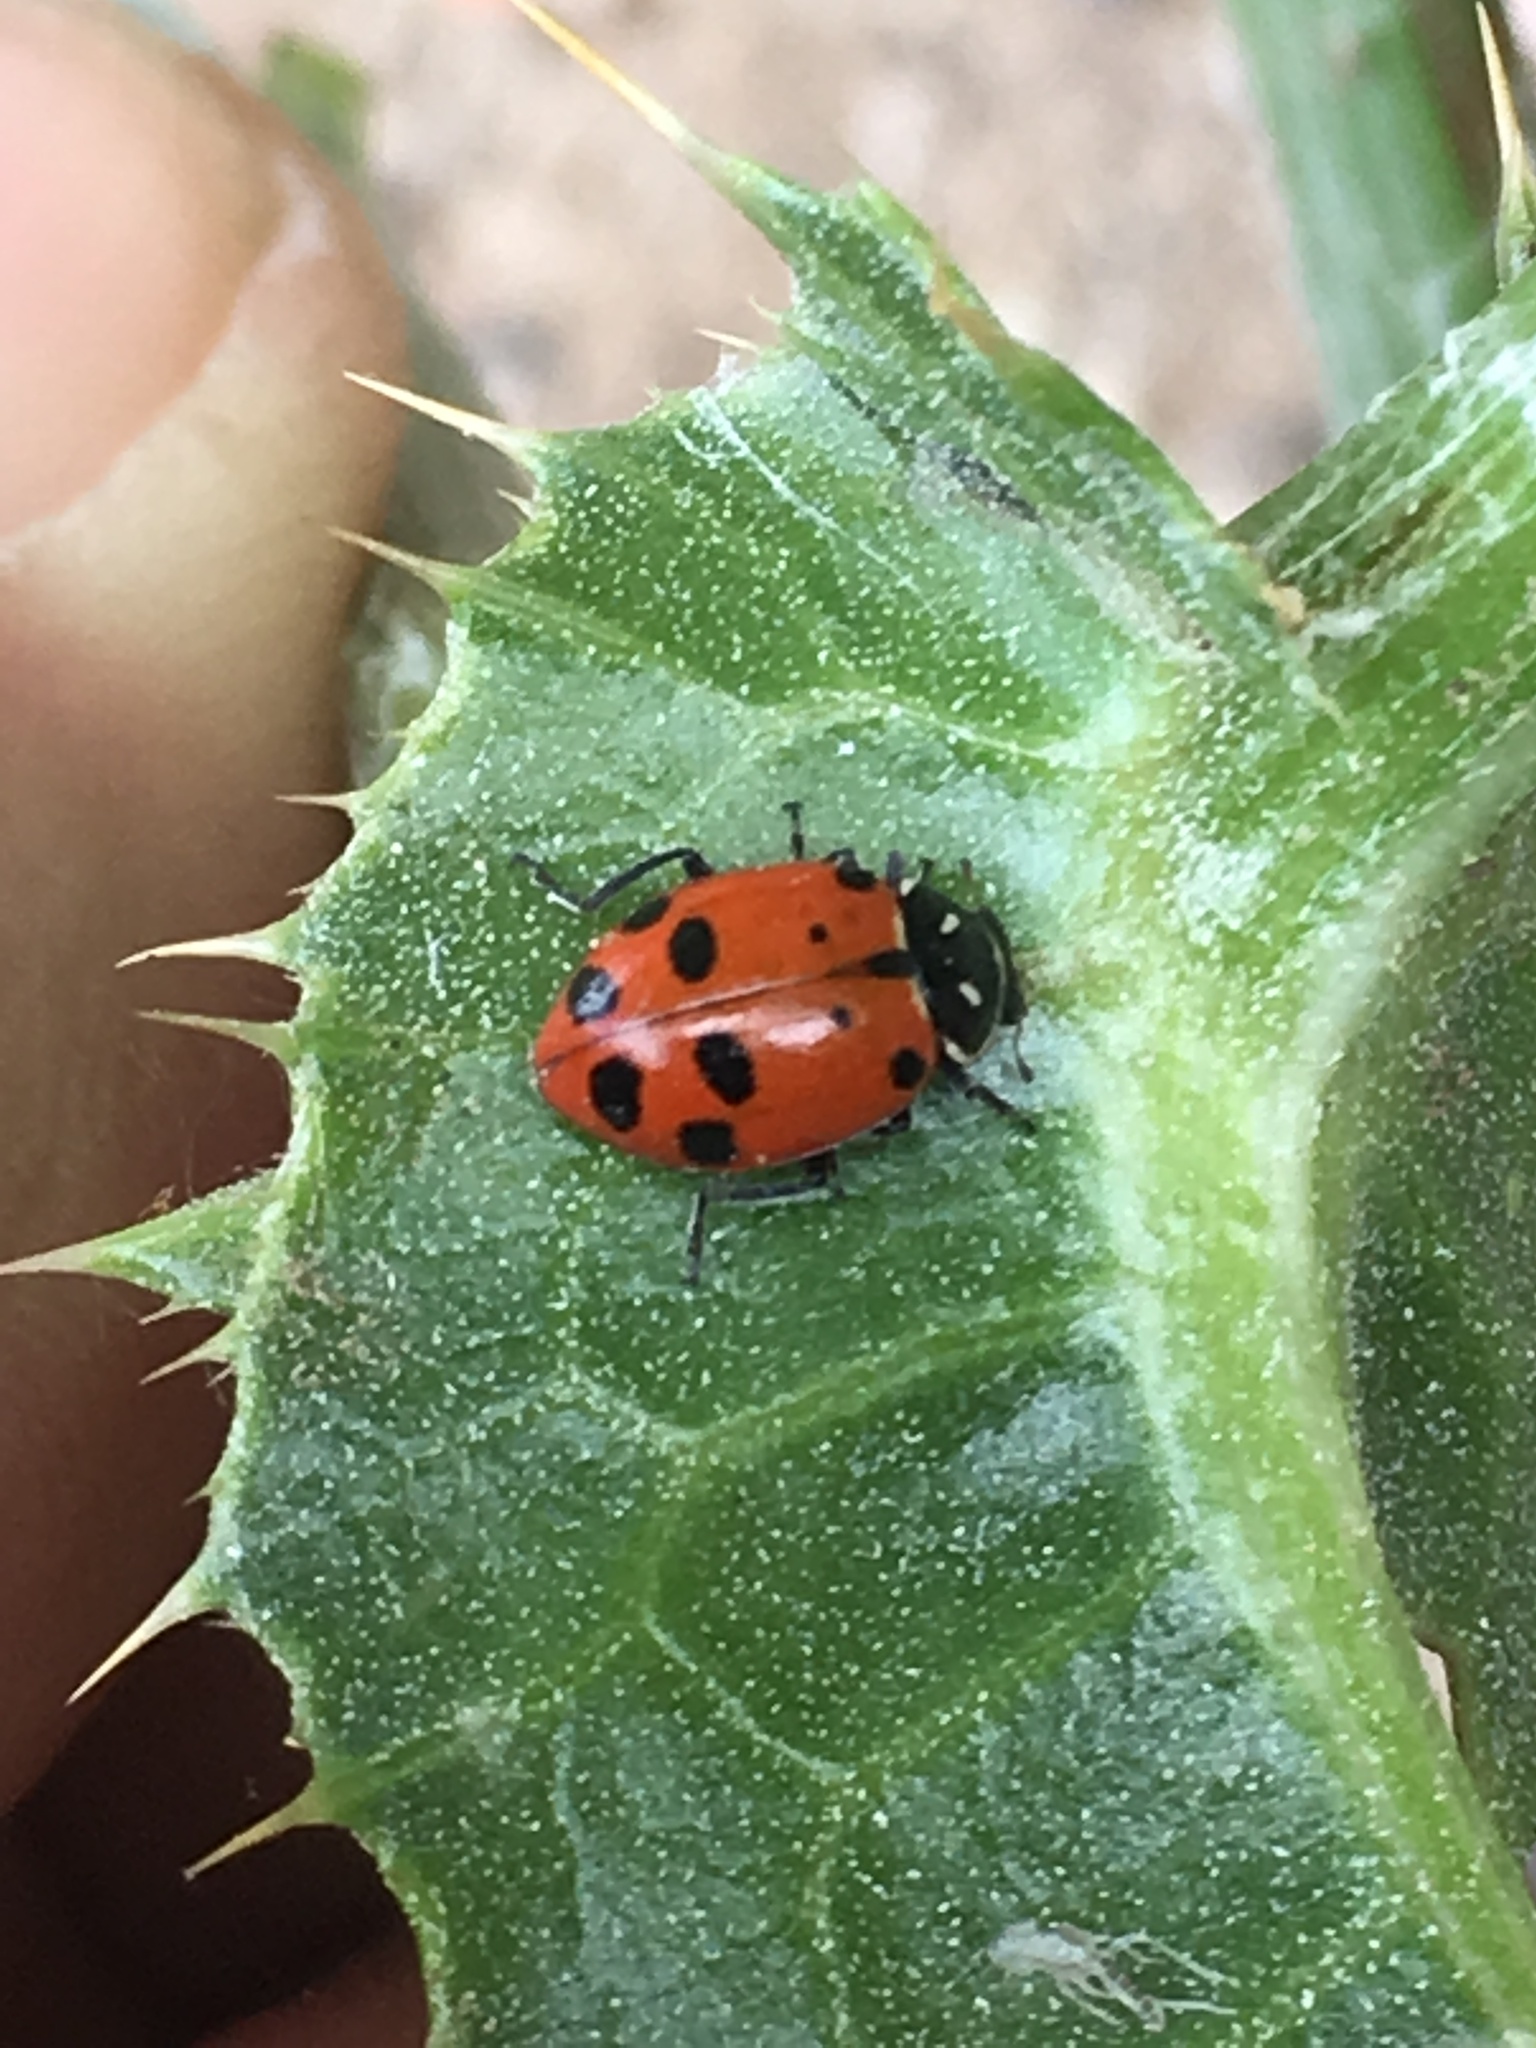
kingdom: Animalia
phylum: Arthropoda
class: Insecta
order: Coleoptera
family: Coccinellidae
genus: Hippodamia
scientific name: Hippodamia convergens
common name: Convergent lady beetle
